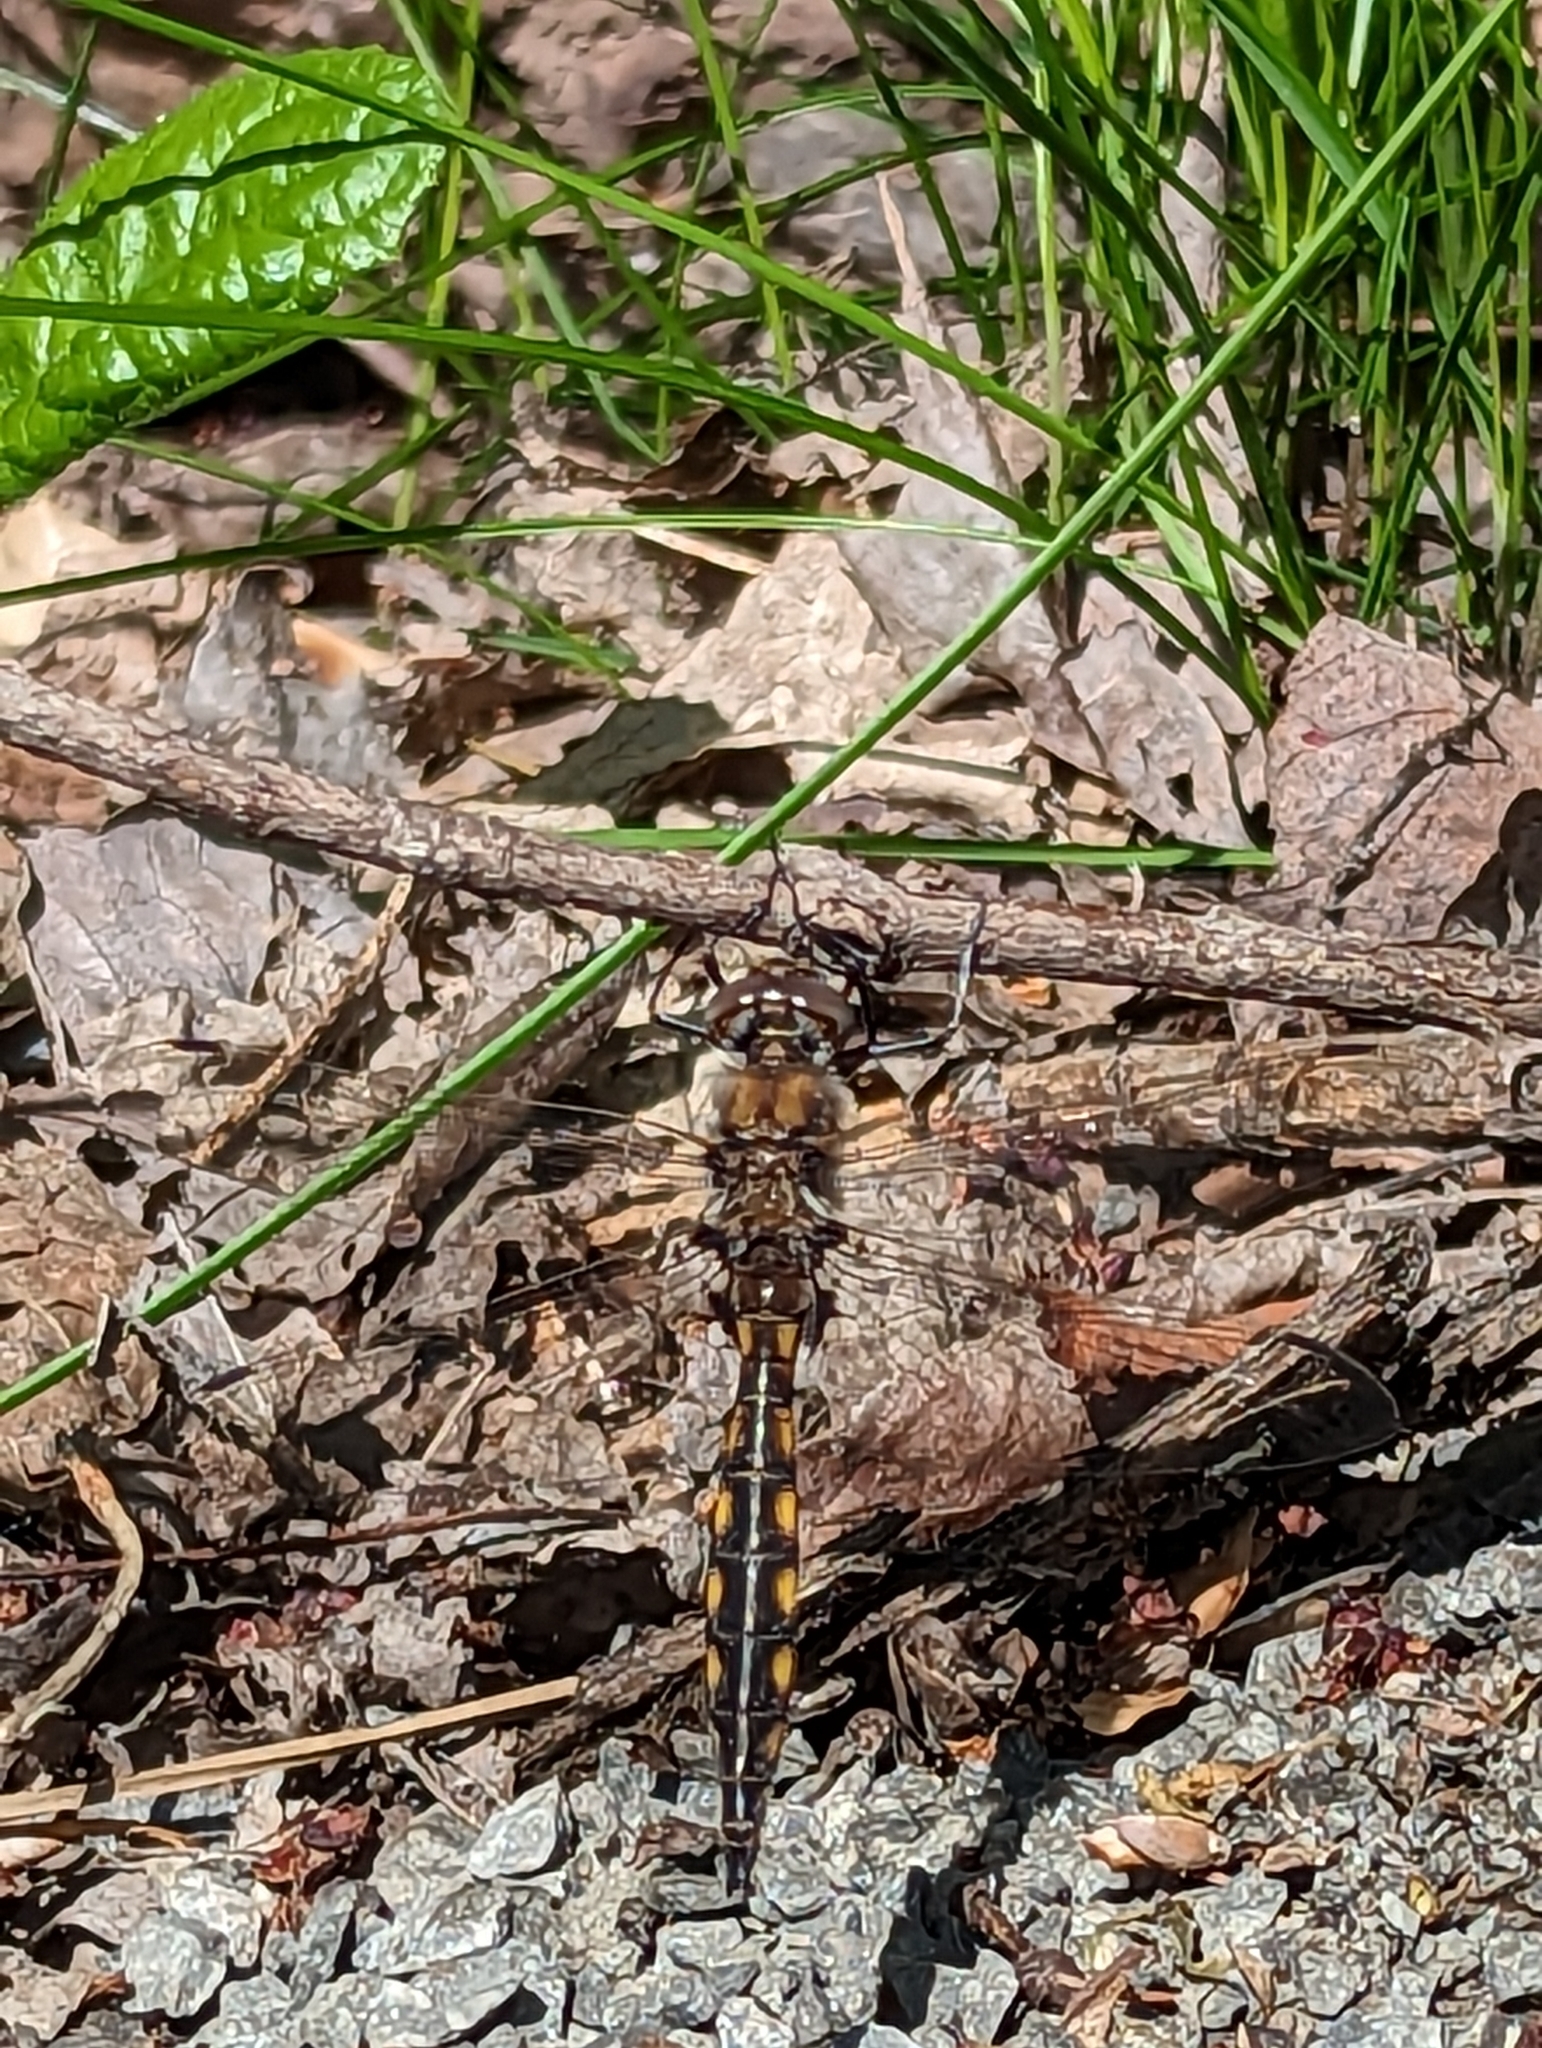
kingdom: Animalia
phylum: Arthropoda
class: Insecta
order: Odonata
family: Corduliidae
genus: Epitheca
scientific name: Epitheca canis
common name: Beaverpond baskettail
